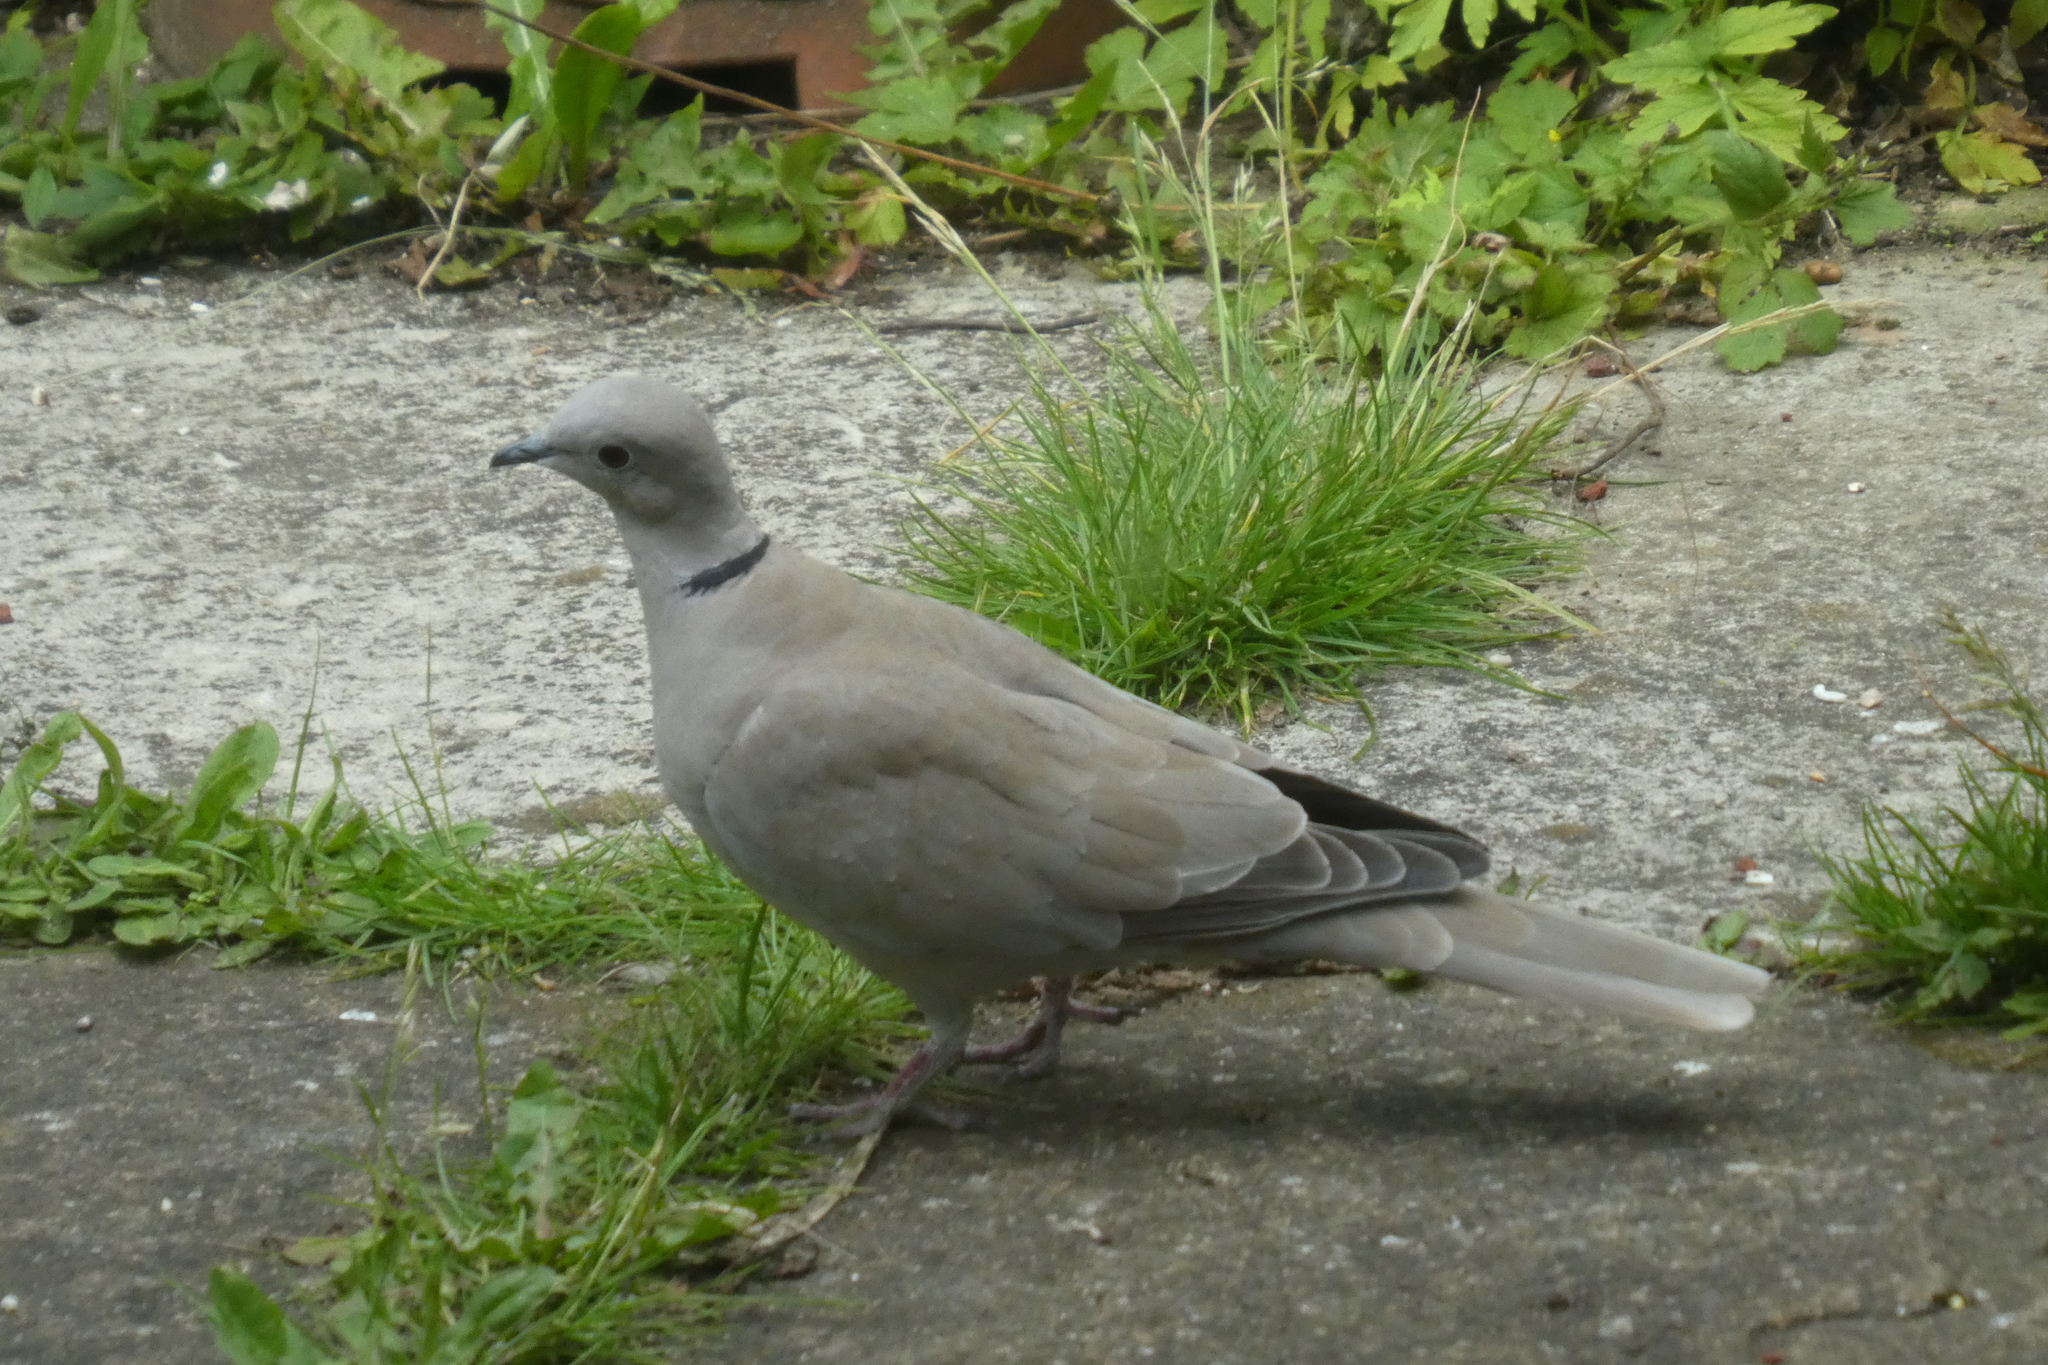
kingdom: Animalia
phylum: Chordata
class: Aves
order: Columbiformes
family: Columbidae
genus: Streptopelia
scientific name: Streptopelia decaocto
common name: Eurasian collared dove
